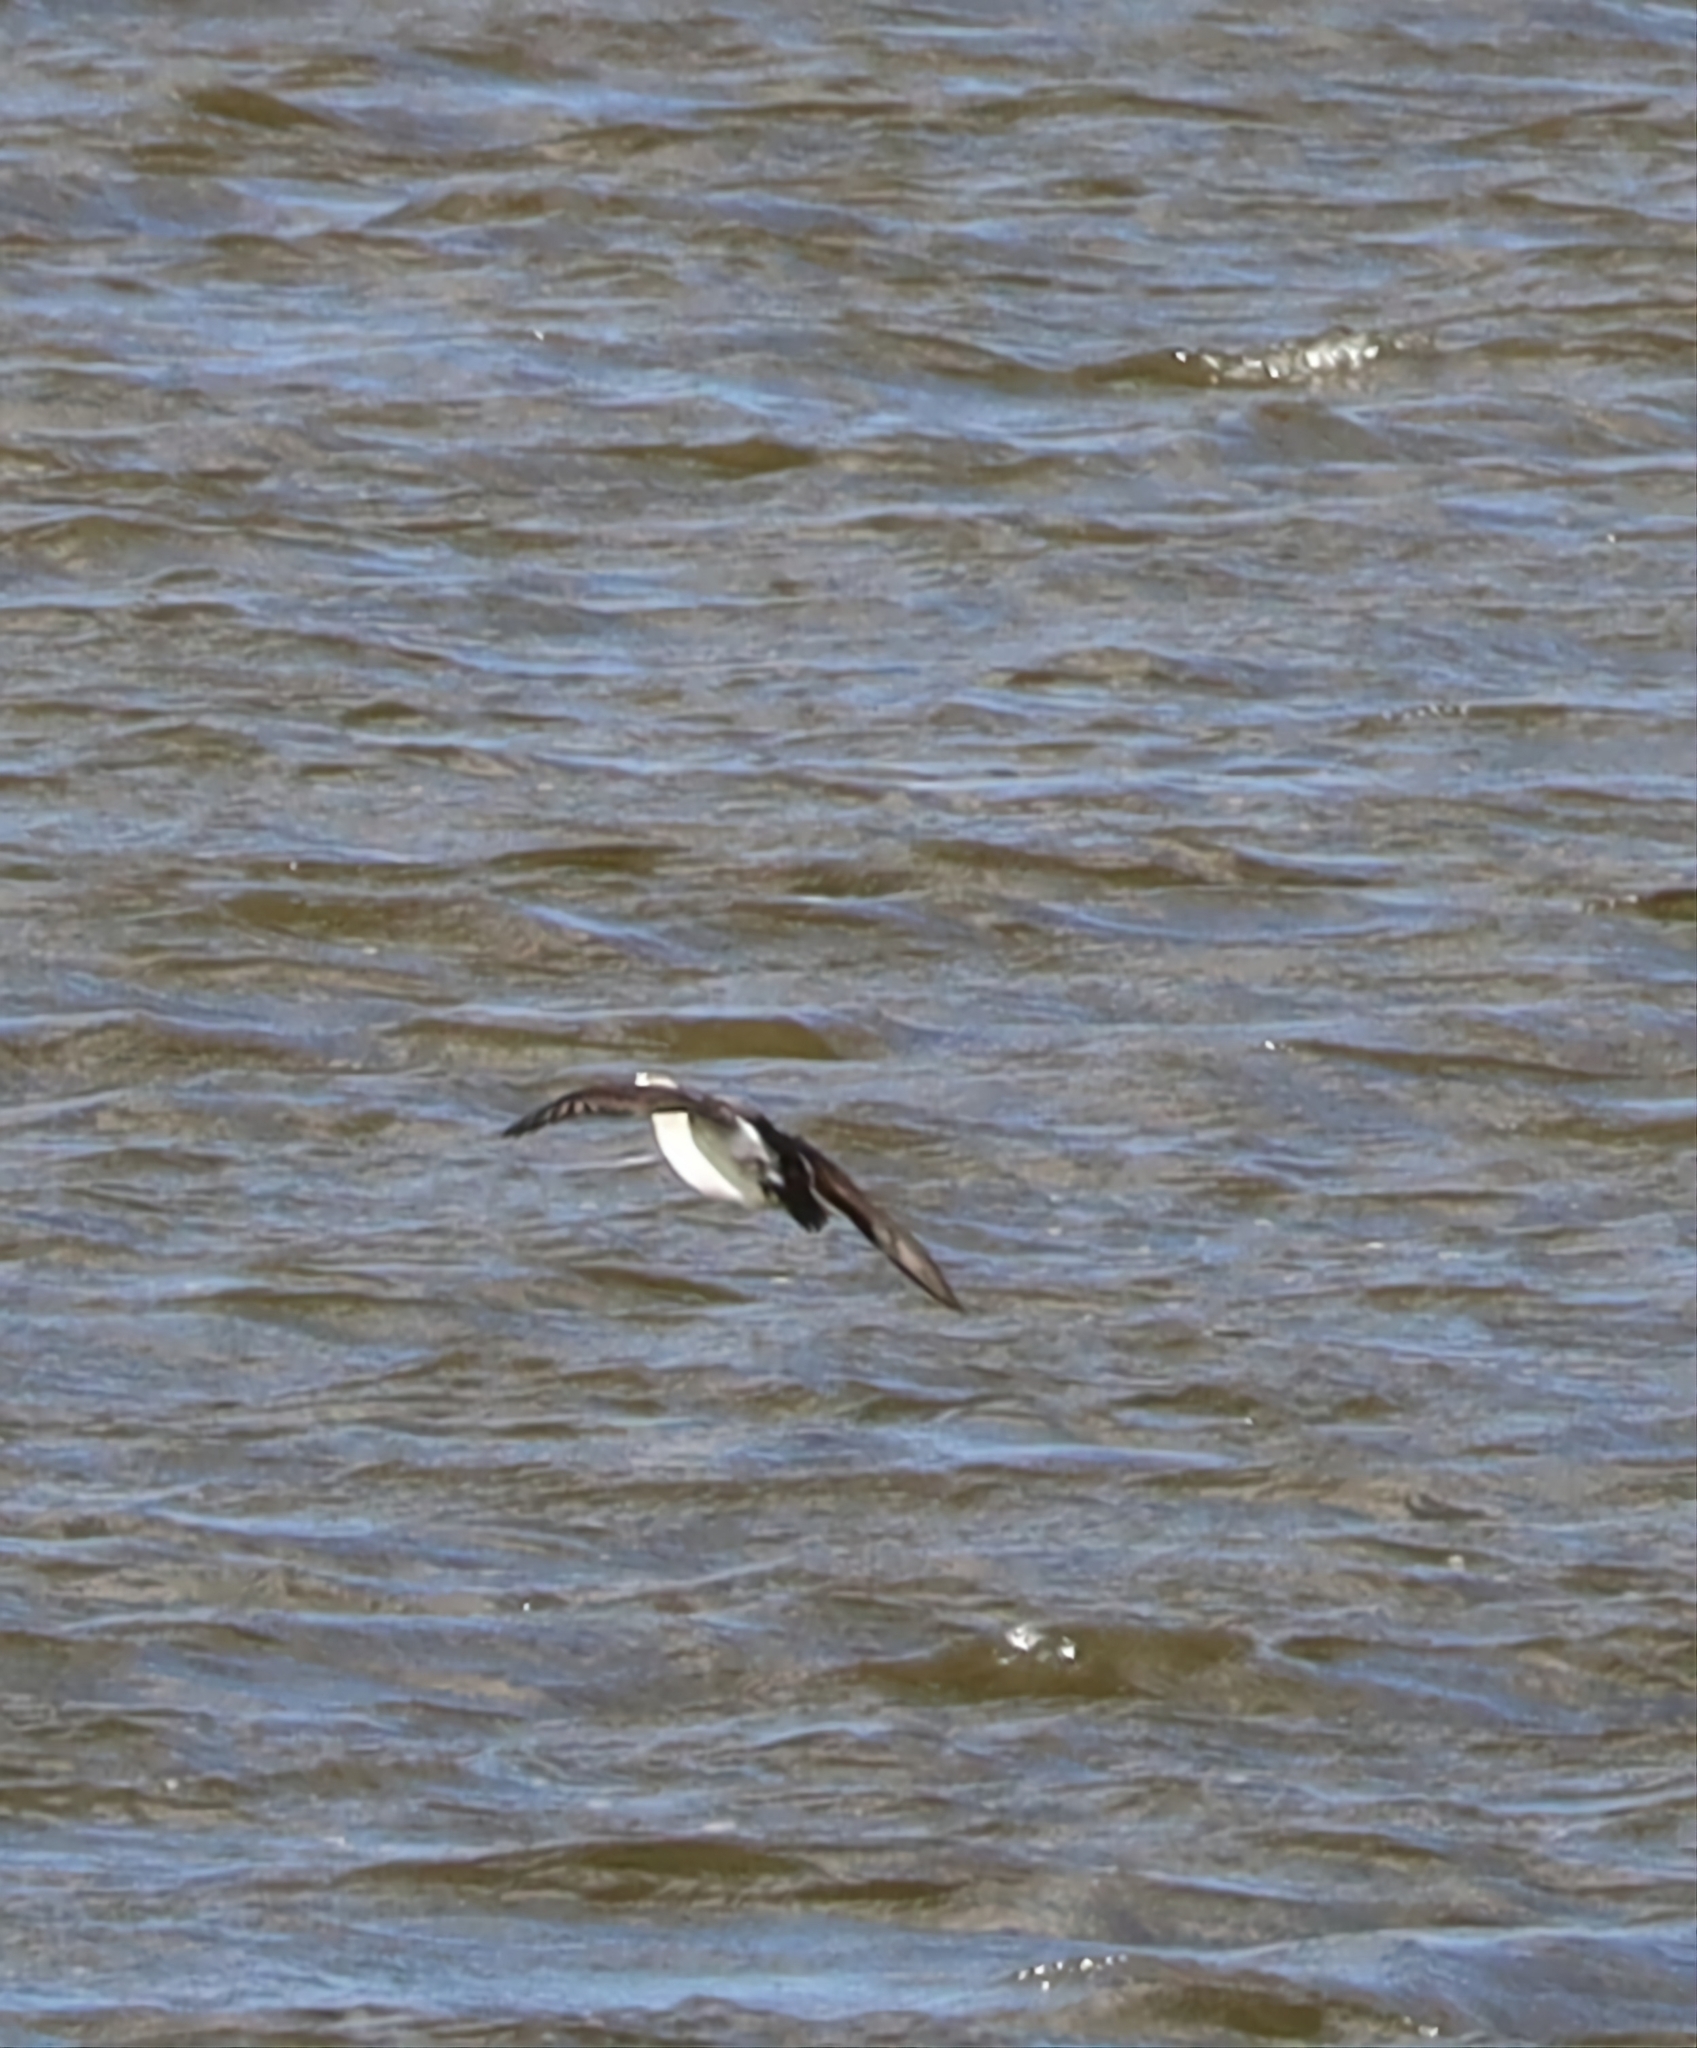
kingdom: Animalia
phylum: Chordata
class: Aves
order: Anseriformes
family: Anatidae
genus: Clangula
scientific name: Clangula hyemalis
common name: Long-tailed duck
